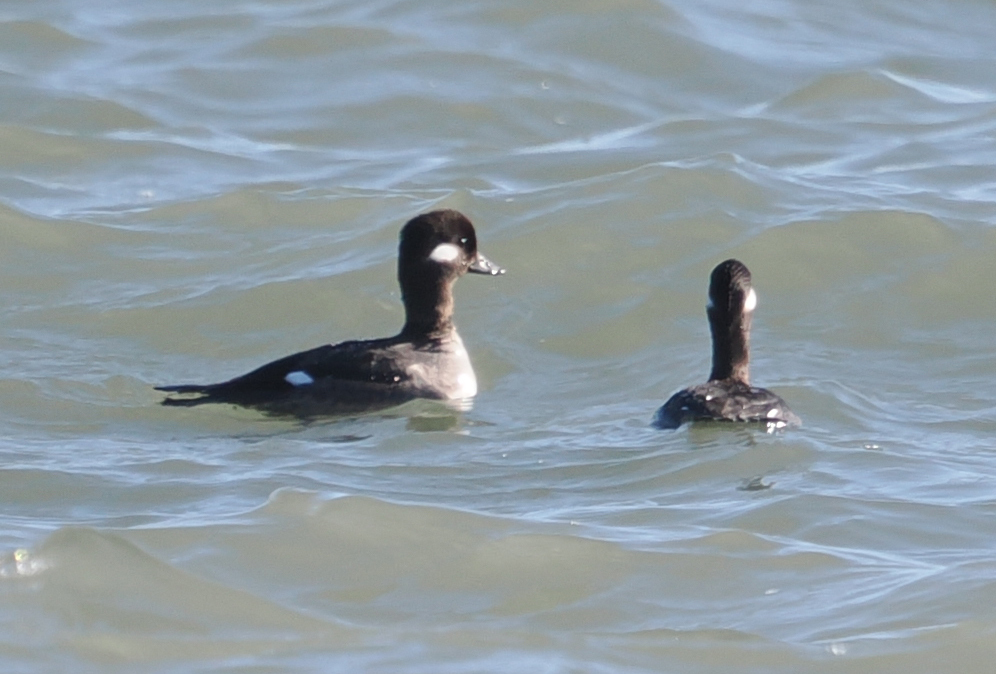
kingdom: Animalia
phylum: Chordata
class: Aves
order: Anseriformes
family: Anatidae
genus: Bucephala
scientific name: Bucephala albeola
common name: Bufflehead
